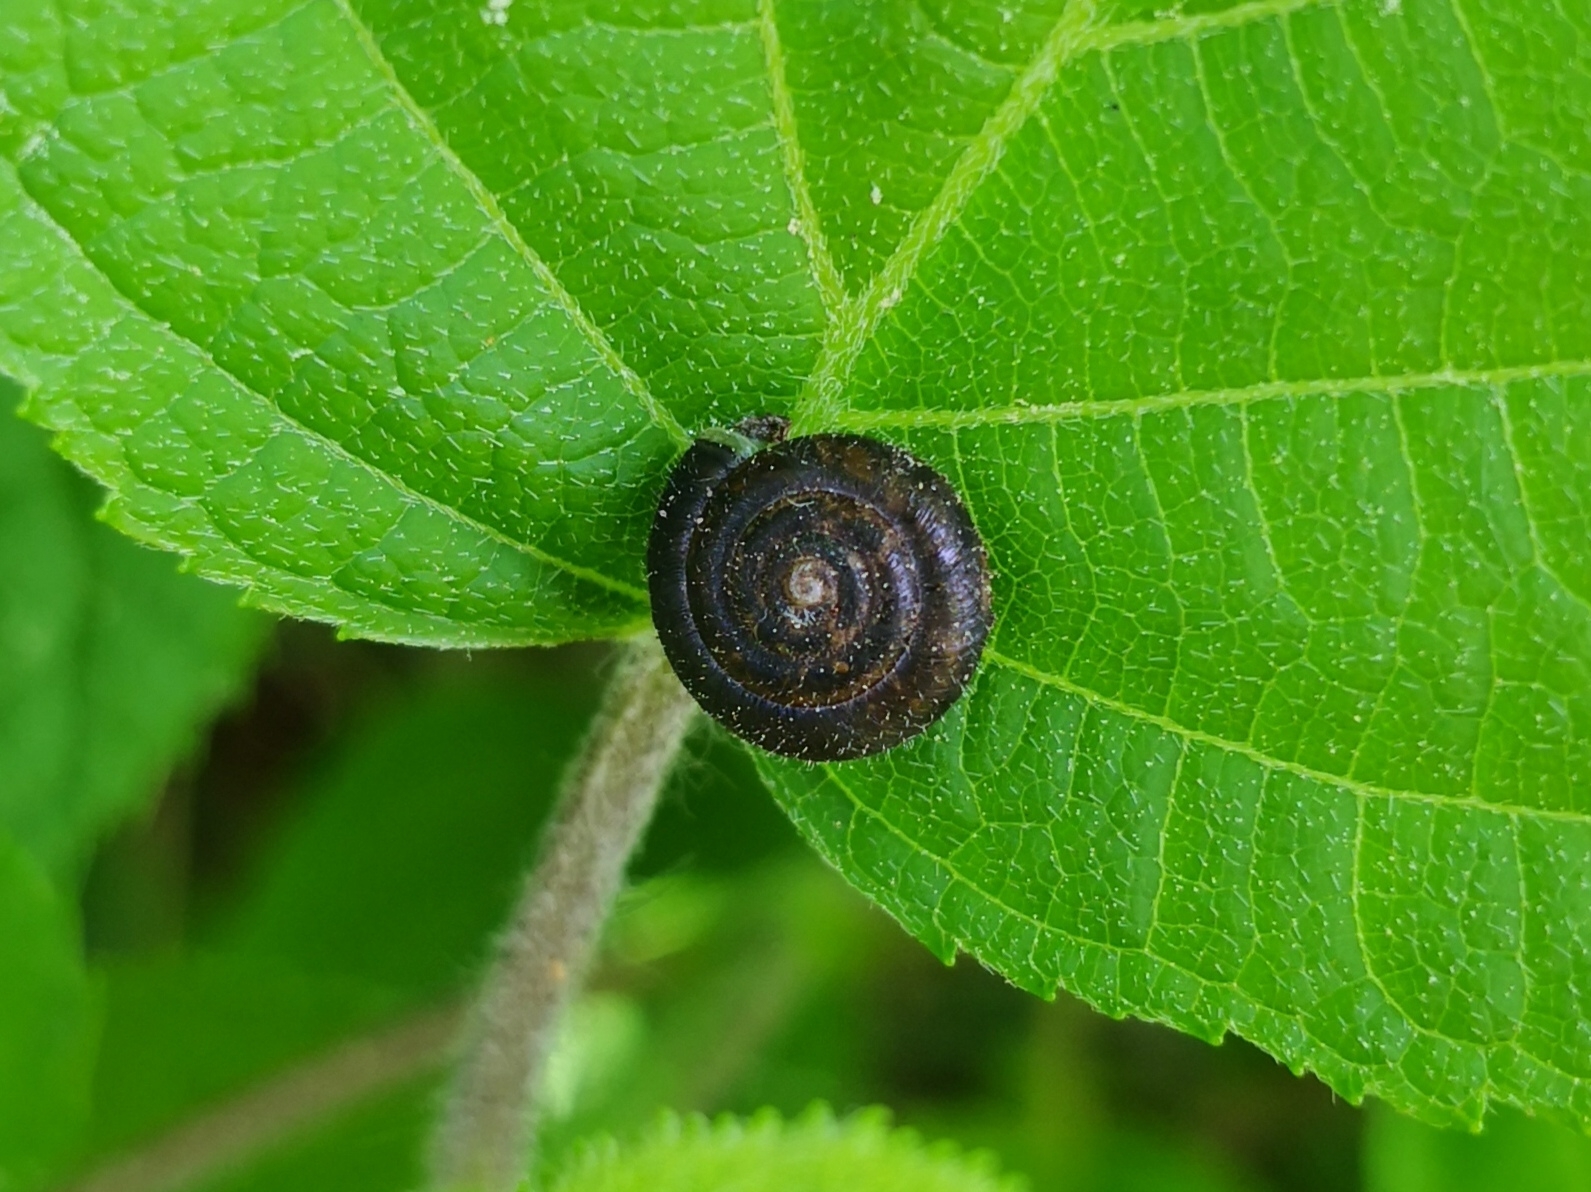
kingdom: Animalia
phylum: Mollusca
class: Gastropoda
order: Stylommatophora
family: Hygromiidae
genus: Trochulus
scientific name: Trochulus hispidus
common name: Hairy snail
